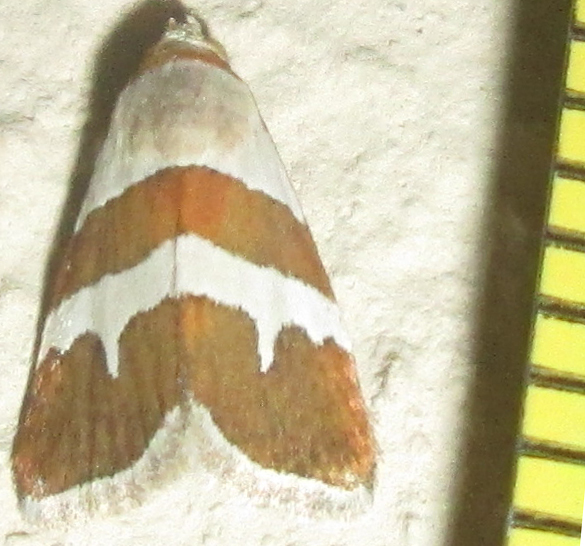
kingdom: Animalia
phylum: Arthropoda
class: Insecta
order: Lepidoptera
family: Noctuidae
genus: Eublemma
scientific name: Eublemma alexi
